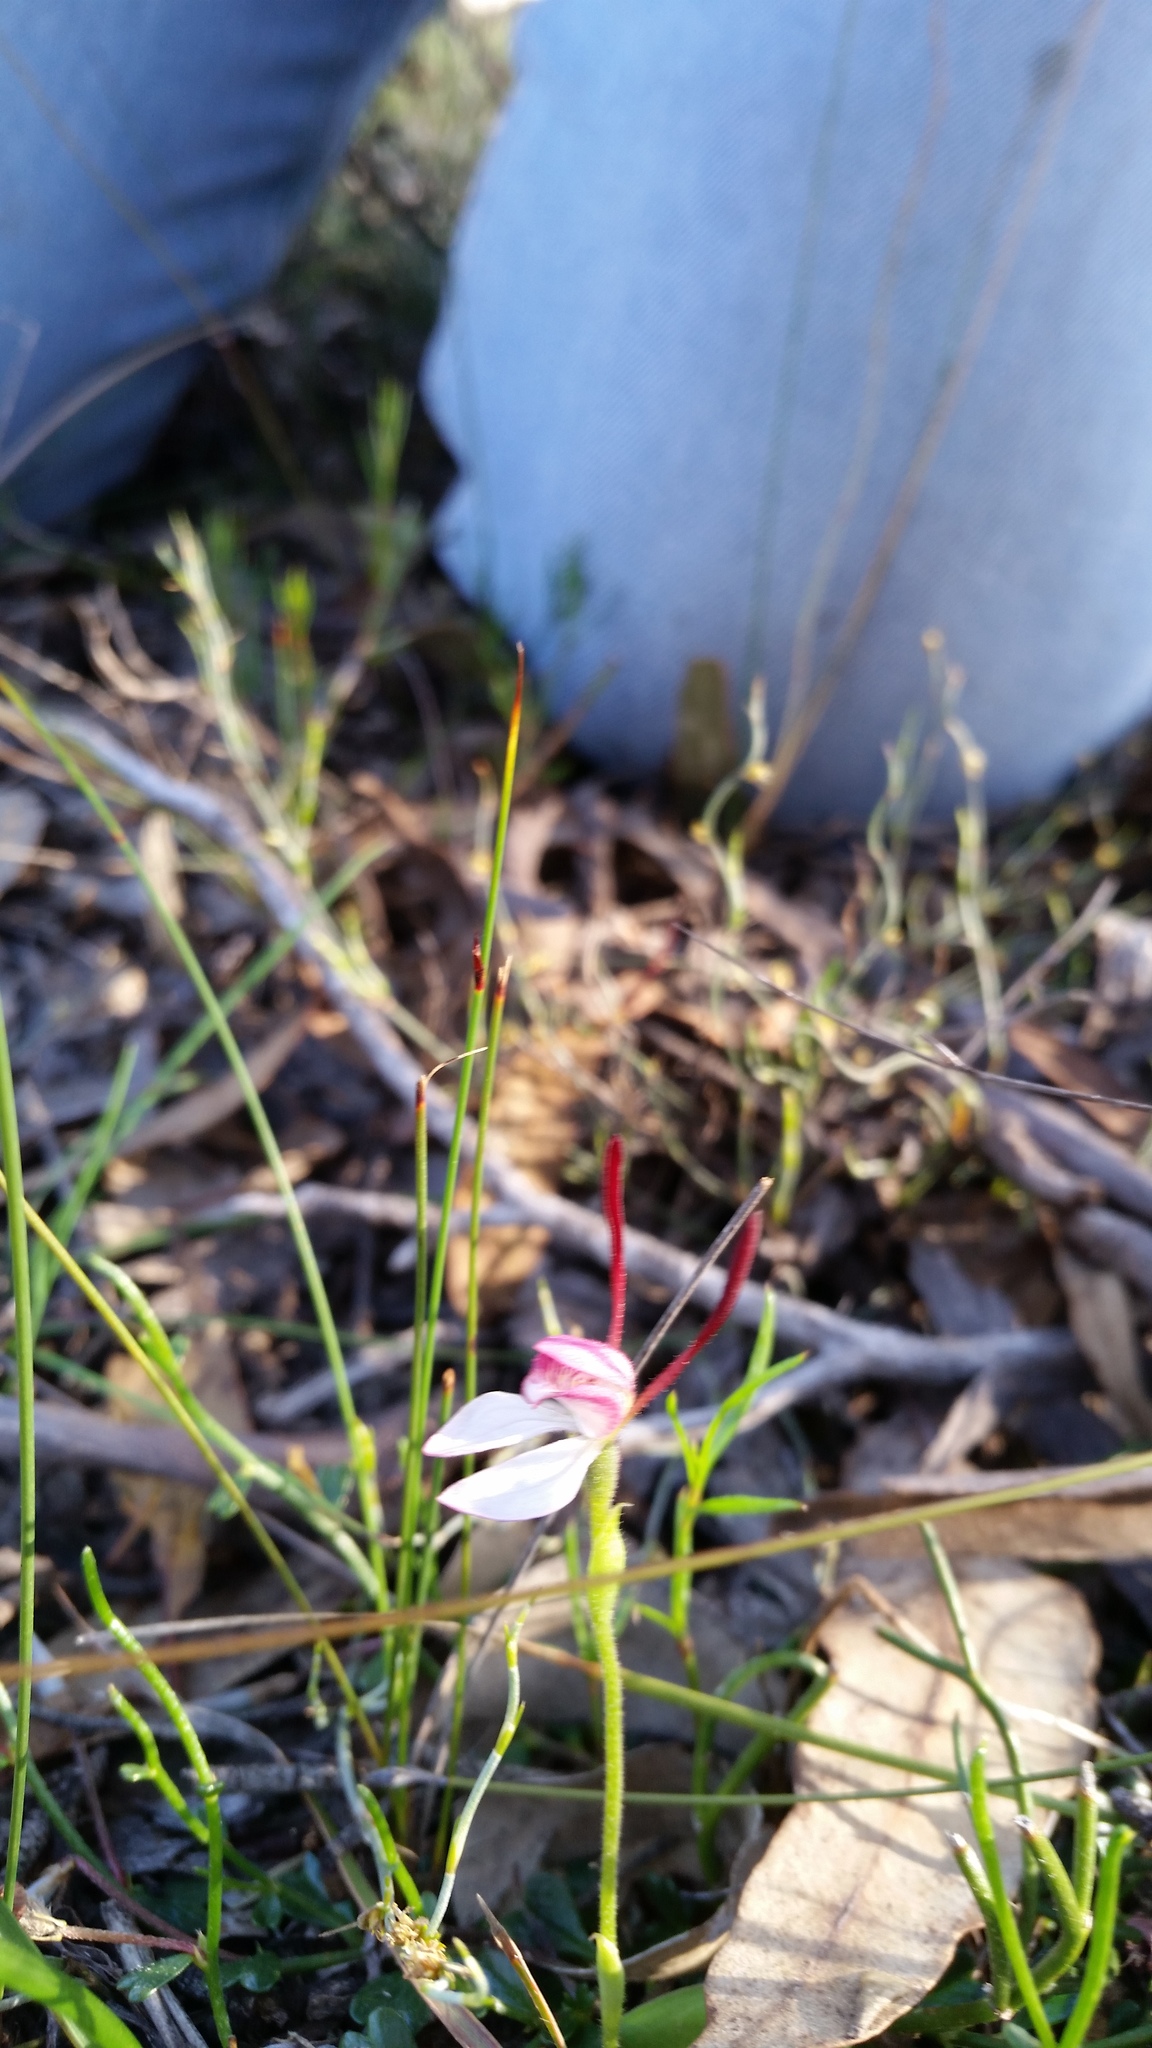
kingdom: Plantae
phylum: Tracheophyta
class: Liliopsida
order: Asparagales
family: Orchidaceae
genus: Leptoceras
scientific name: Leptoceras menziesii
